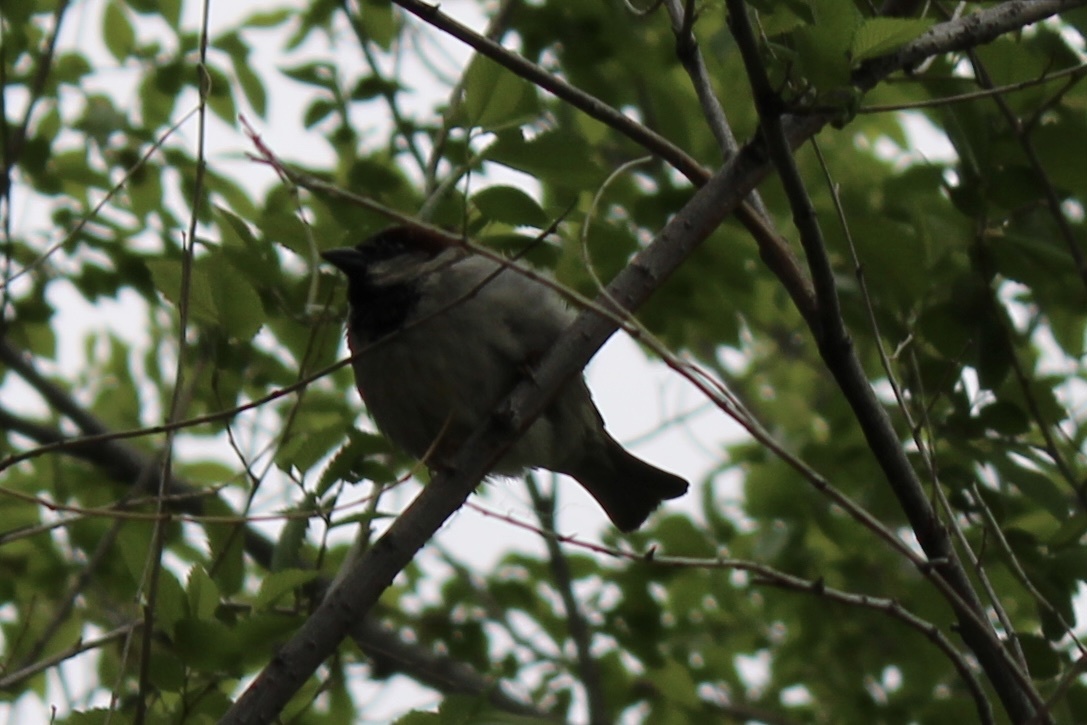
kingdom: Animalia
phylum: Chordata
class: Aves
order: Passeriformes
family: Passeridae
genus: Passer
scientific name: Passer domesticus
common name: House sparrow
